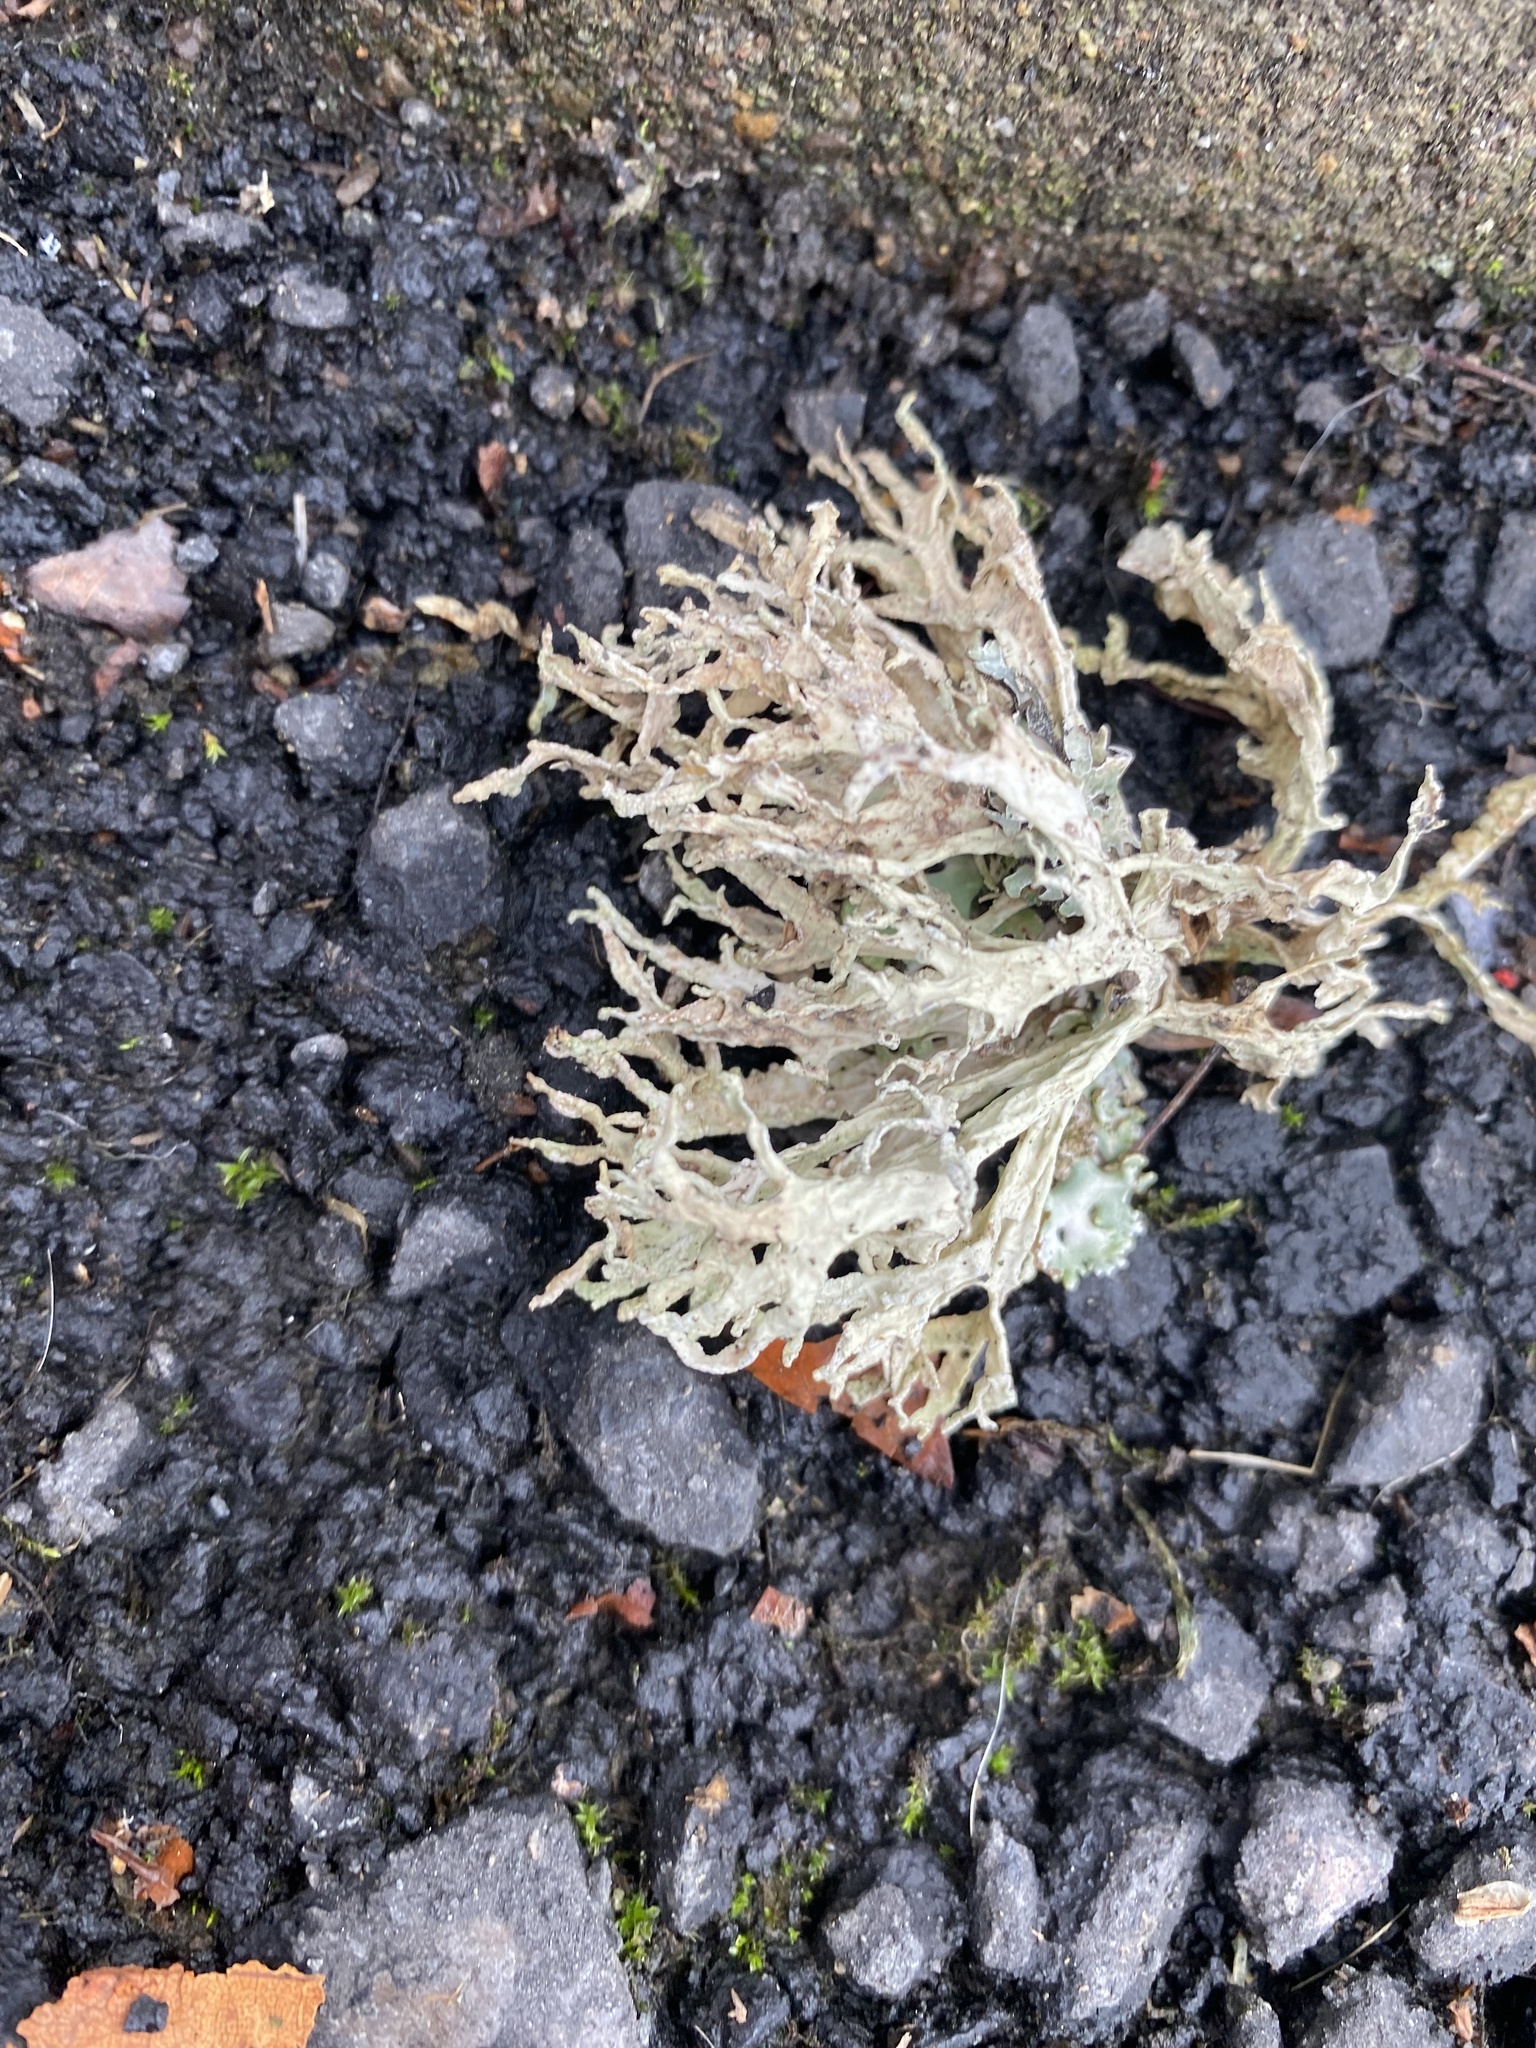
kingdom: Fungi
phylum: Ascomycota
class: Lecanoromycetes
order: Lecanorales
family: Parmeliaceae
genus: Evernia
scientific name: Evernia prunastri
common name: Oak moss
